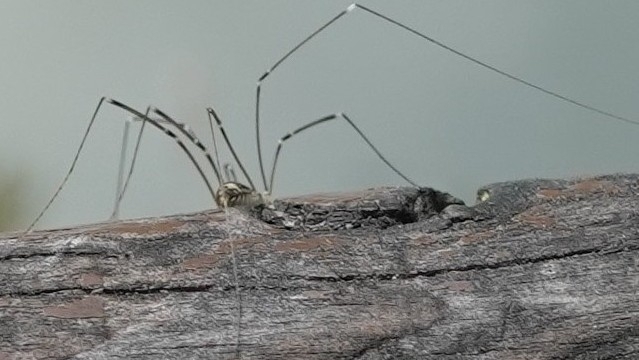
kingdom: Animalia
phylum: Arthropoda
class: Arachnida
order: Opiliones
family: Sclerosomatidae
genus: Leiobunum
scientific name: Leiobunum gracile
